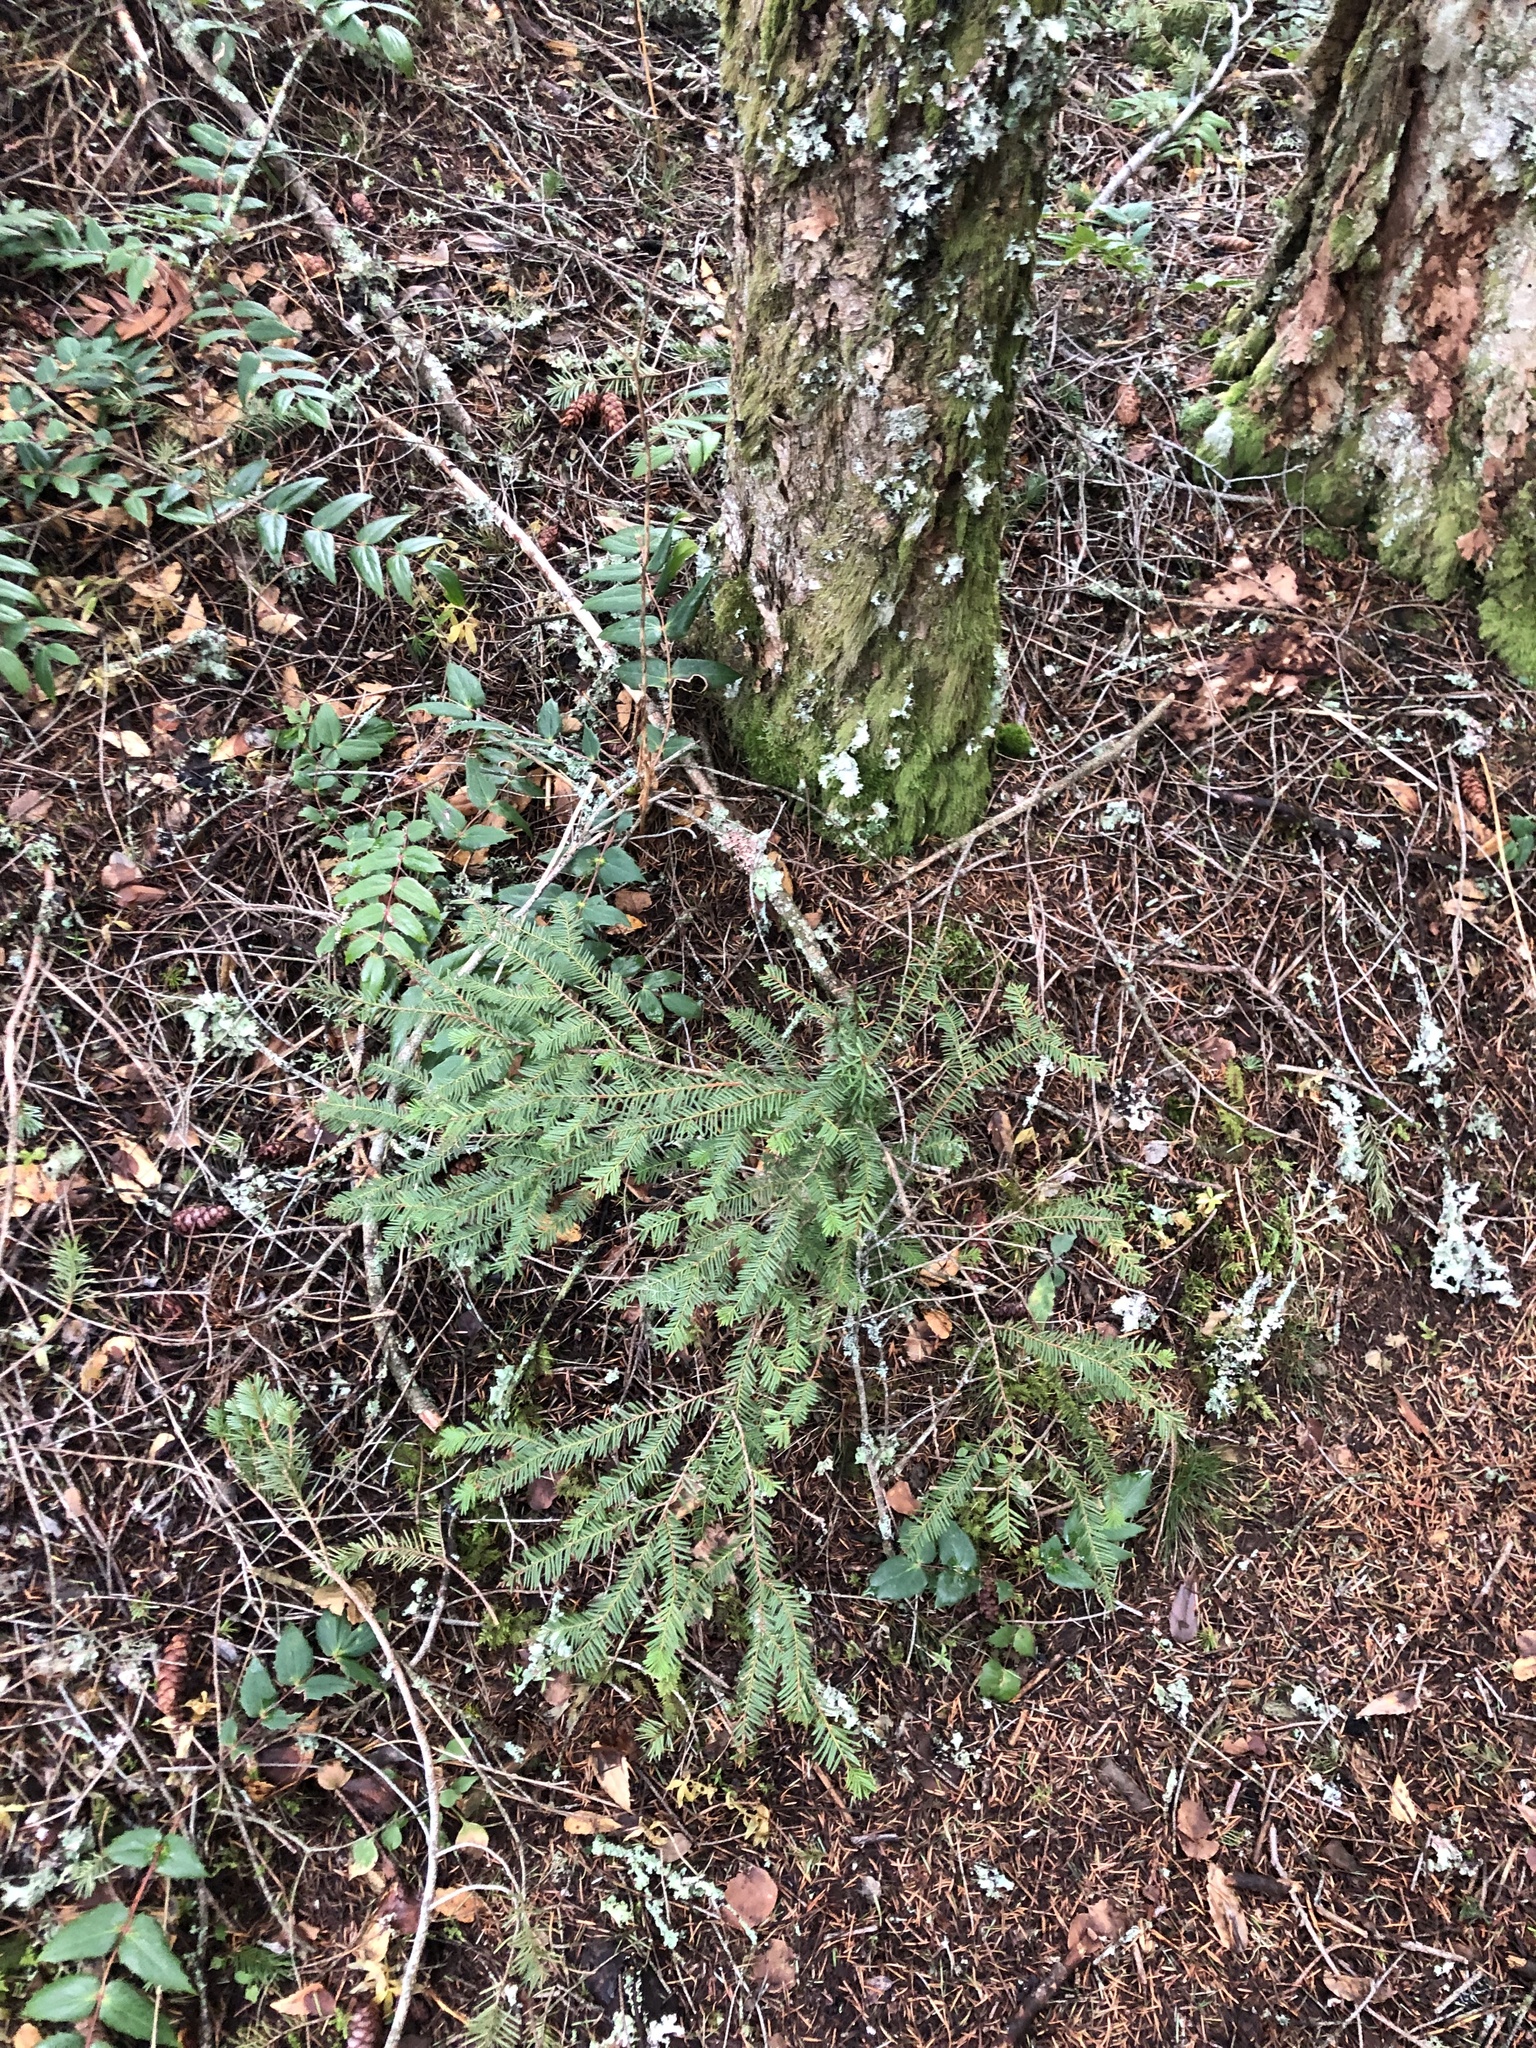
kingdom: Plantae
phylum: Tracheophyta
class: Pinopsida
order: Pinales
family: Taxaceae
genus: Taxus
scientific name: Taxus brevifolia
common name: Pacific yew
